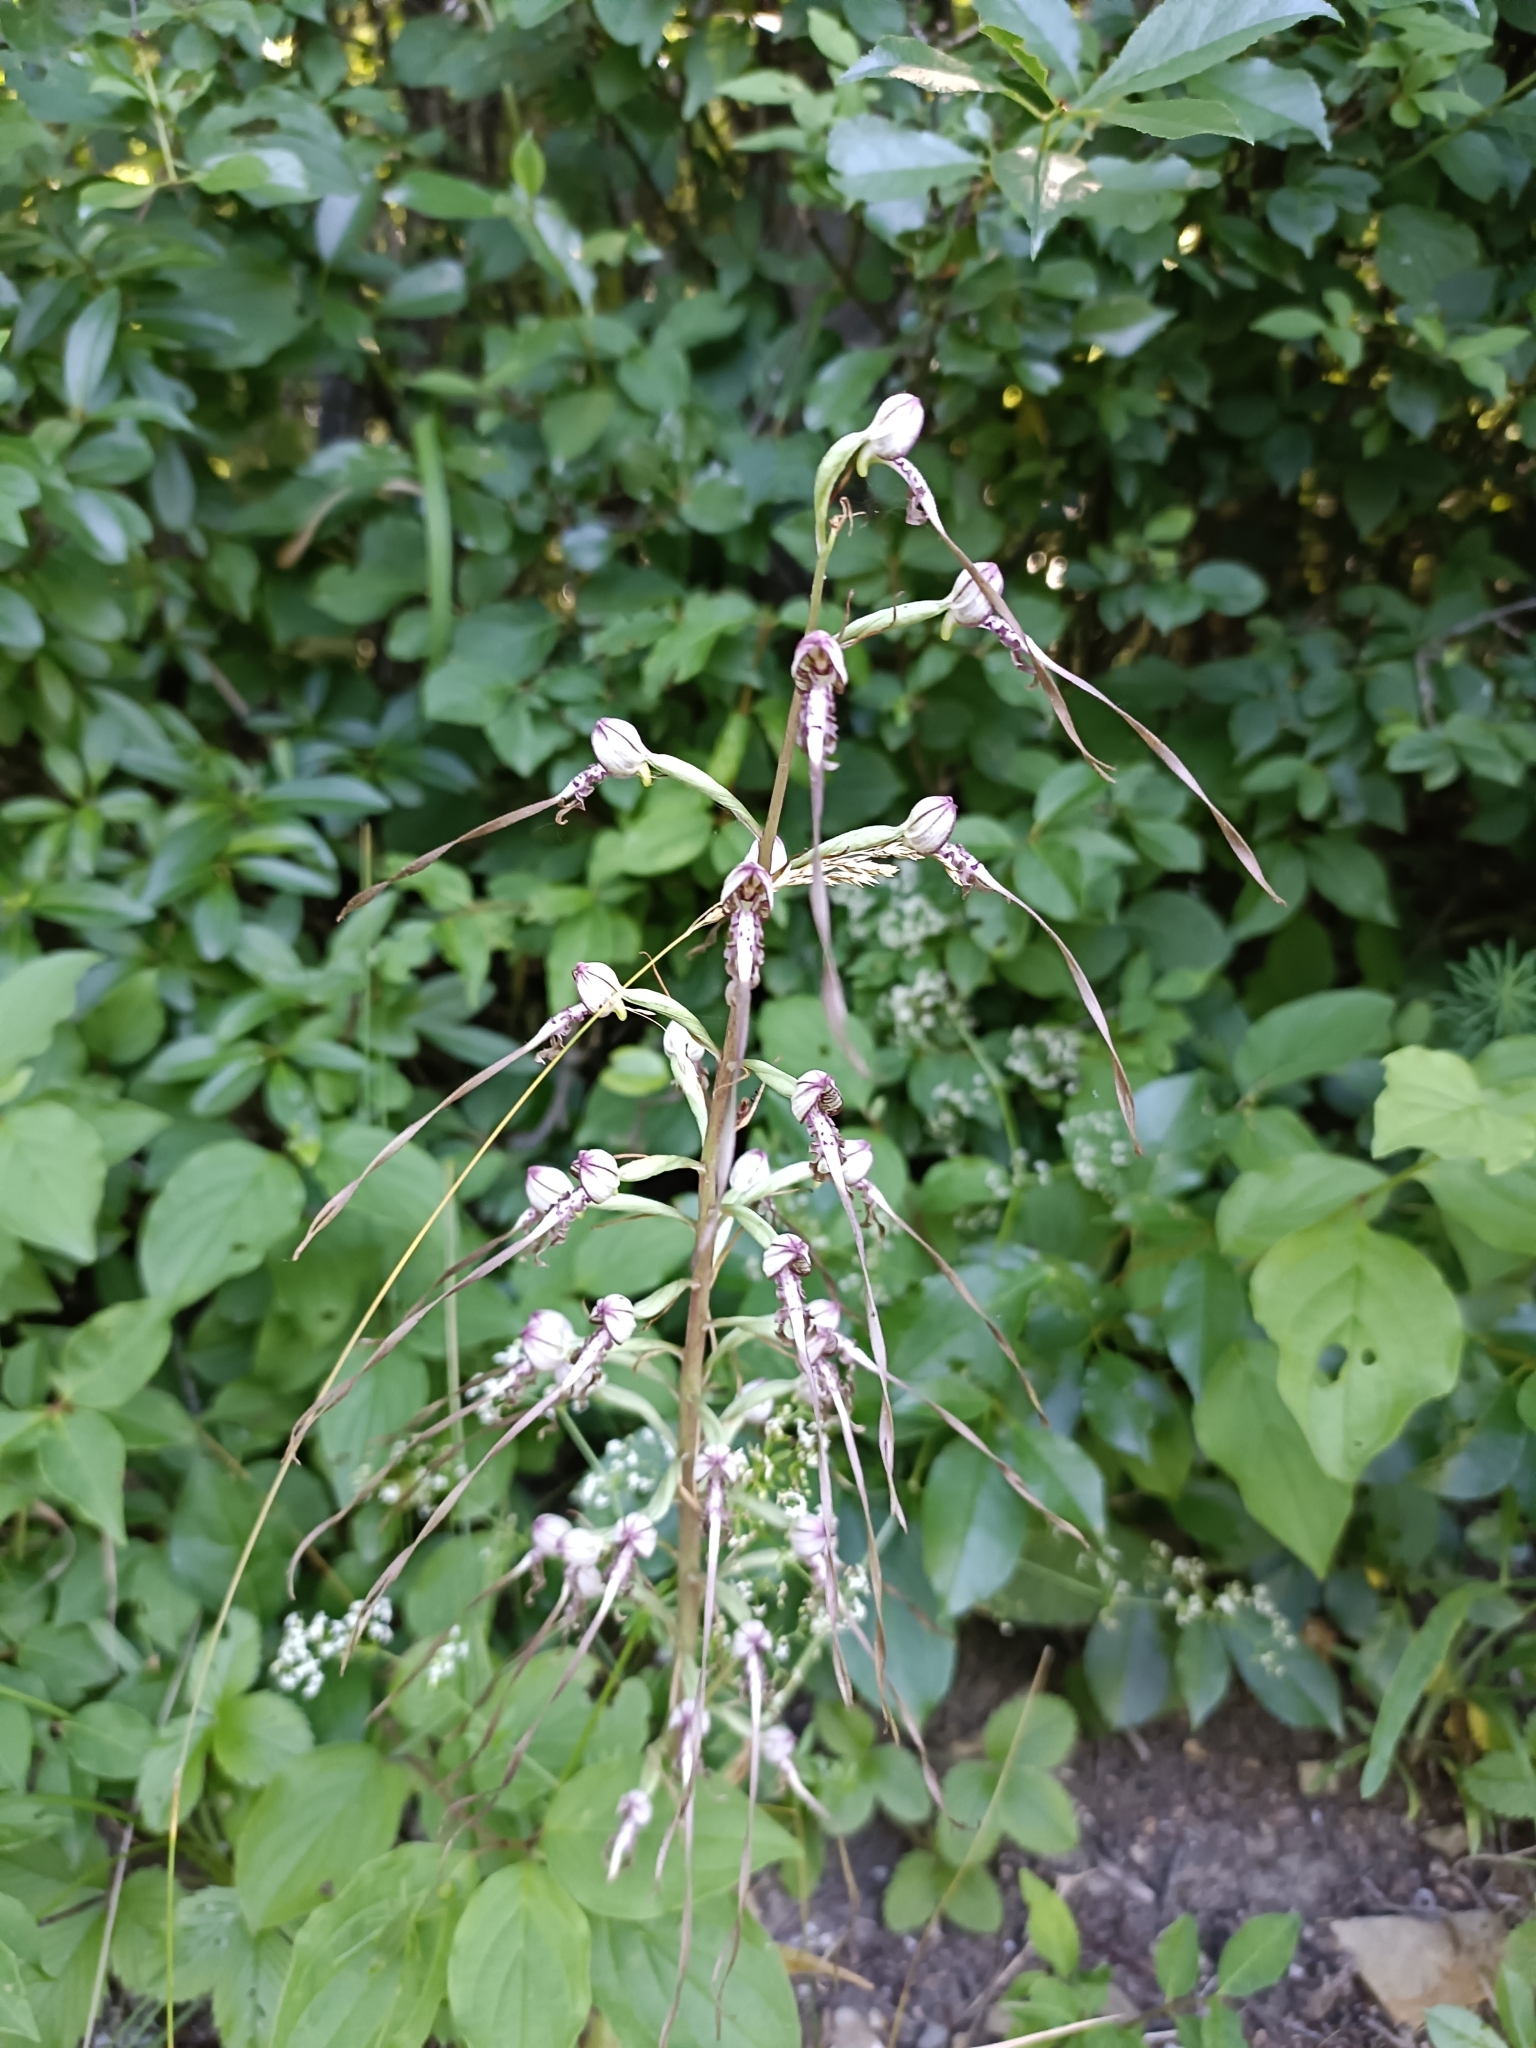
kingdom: Plantae
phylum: Tracheophyta
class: Liliopsida
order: Asparagales
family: Orchidaceae
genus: Himantoglossum
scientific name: Himantoglossum adriaticum
